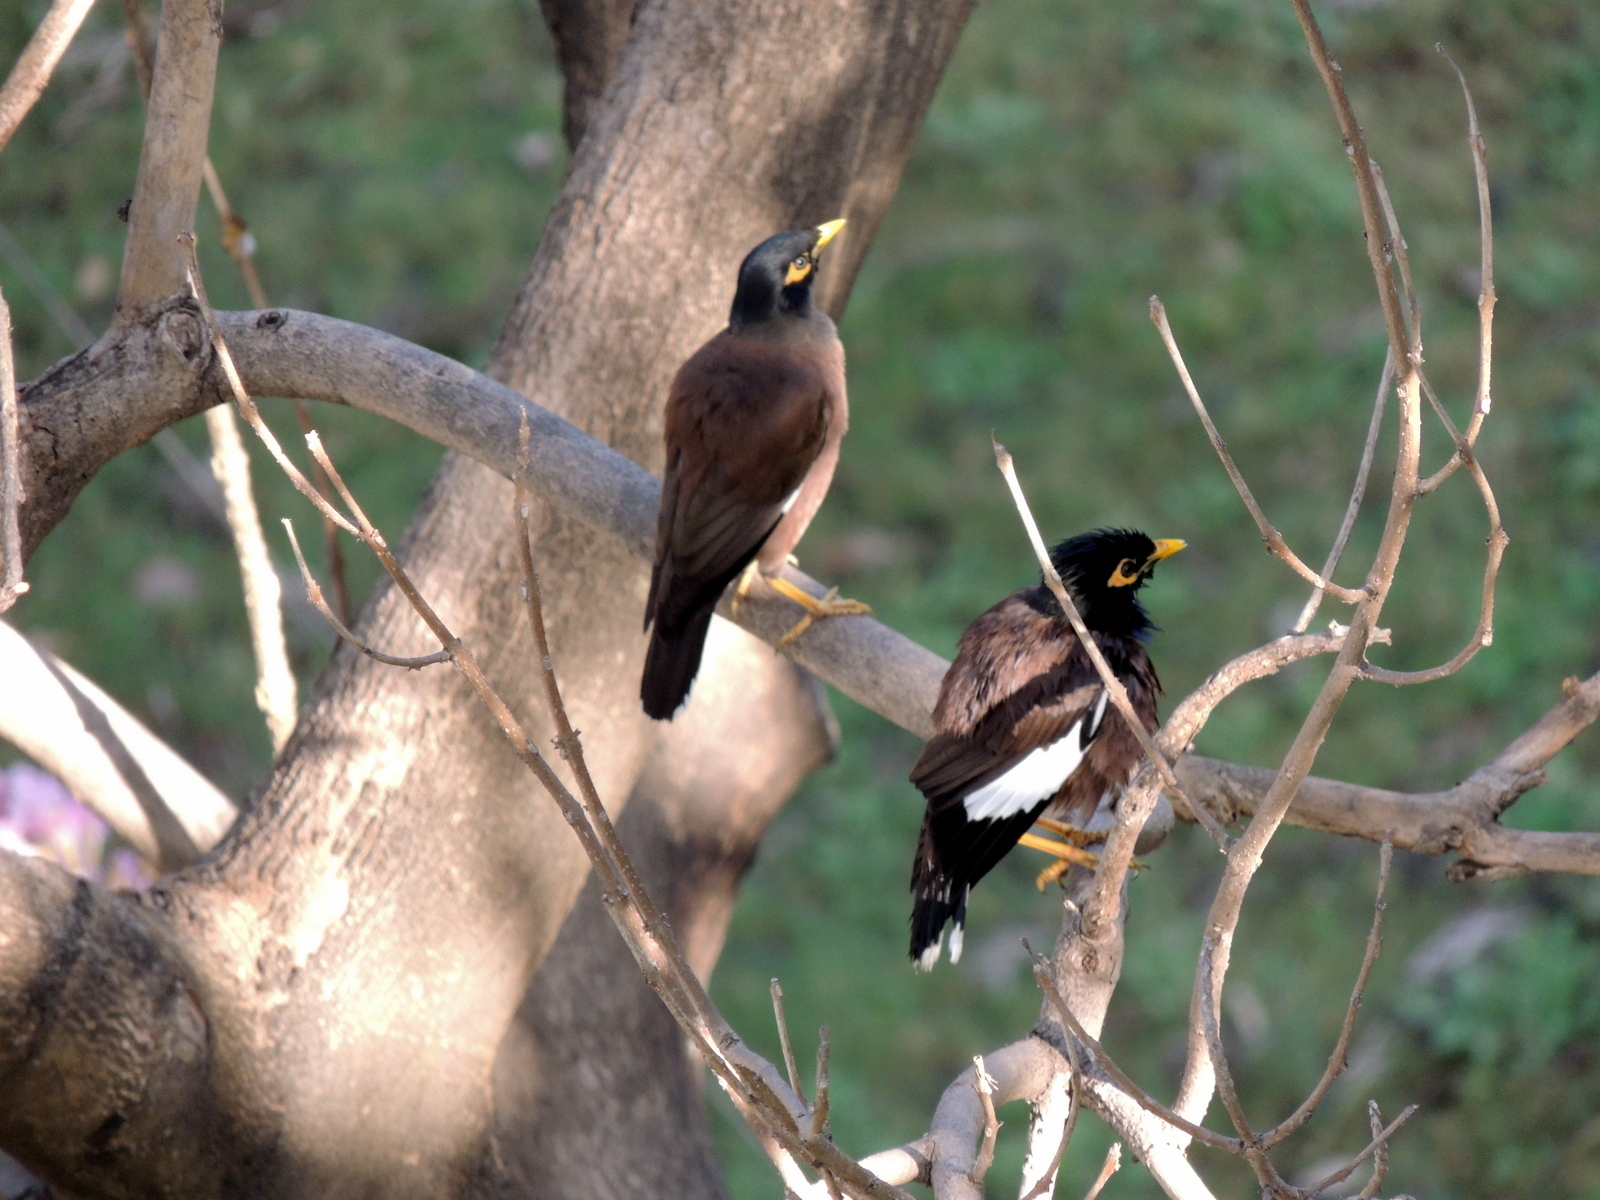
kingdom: Animalia
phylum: Chordata
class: Aves
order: Passeriformes
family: Sturnidae
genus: Acridotheres
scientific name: Acridotheres tristis
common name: Common myna
